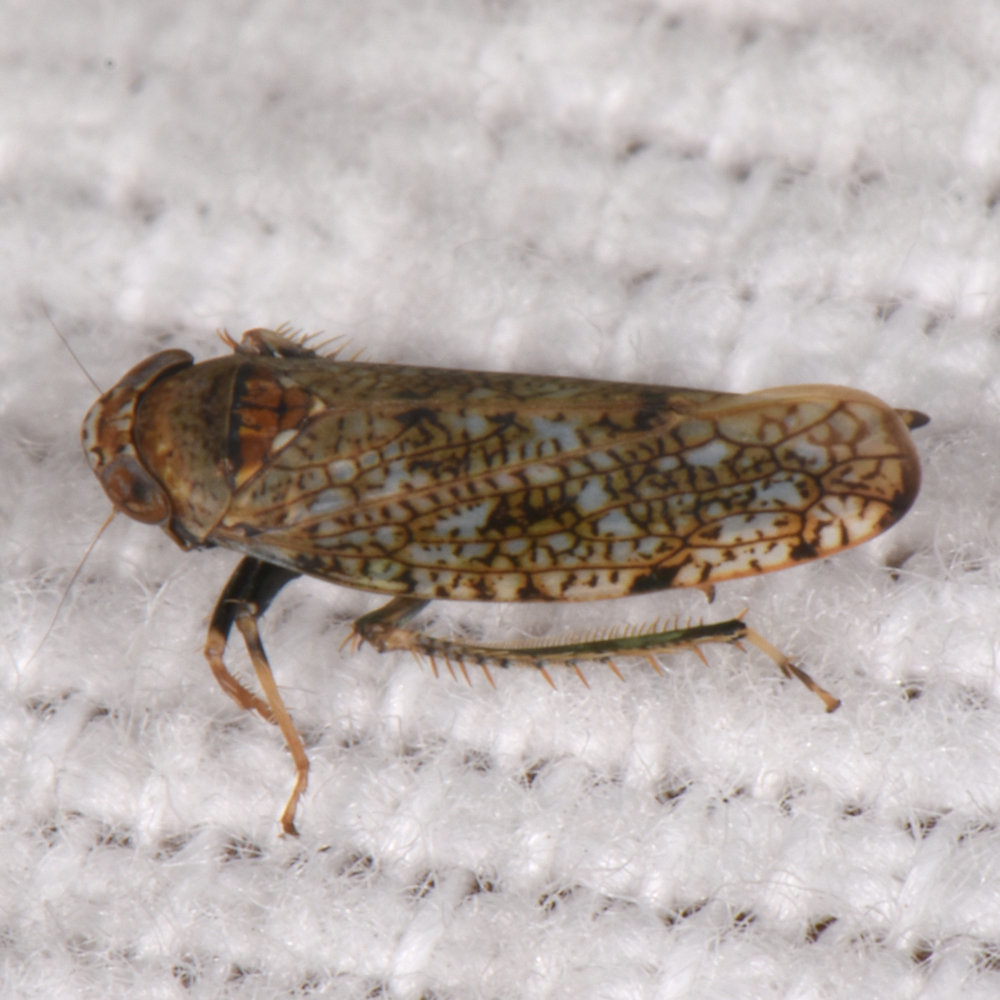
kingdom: Animalia
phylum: Arthropoda
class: Insecta
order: Hemiptera
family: Cicadellidae
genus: Orientus
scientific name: Orientus ishidae
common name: Japanese leafhopper
